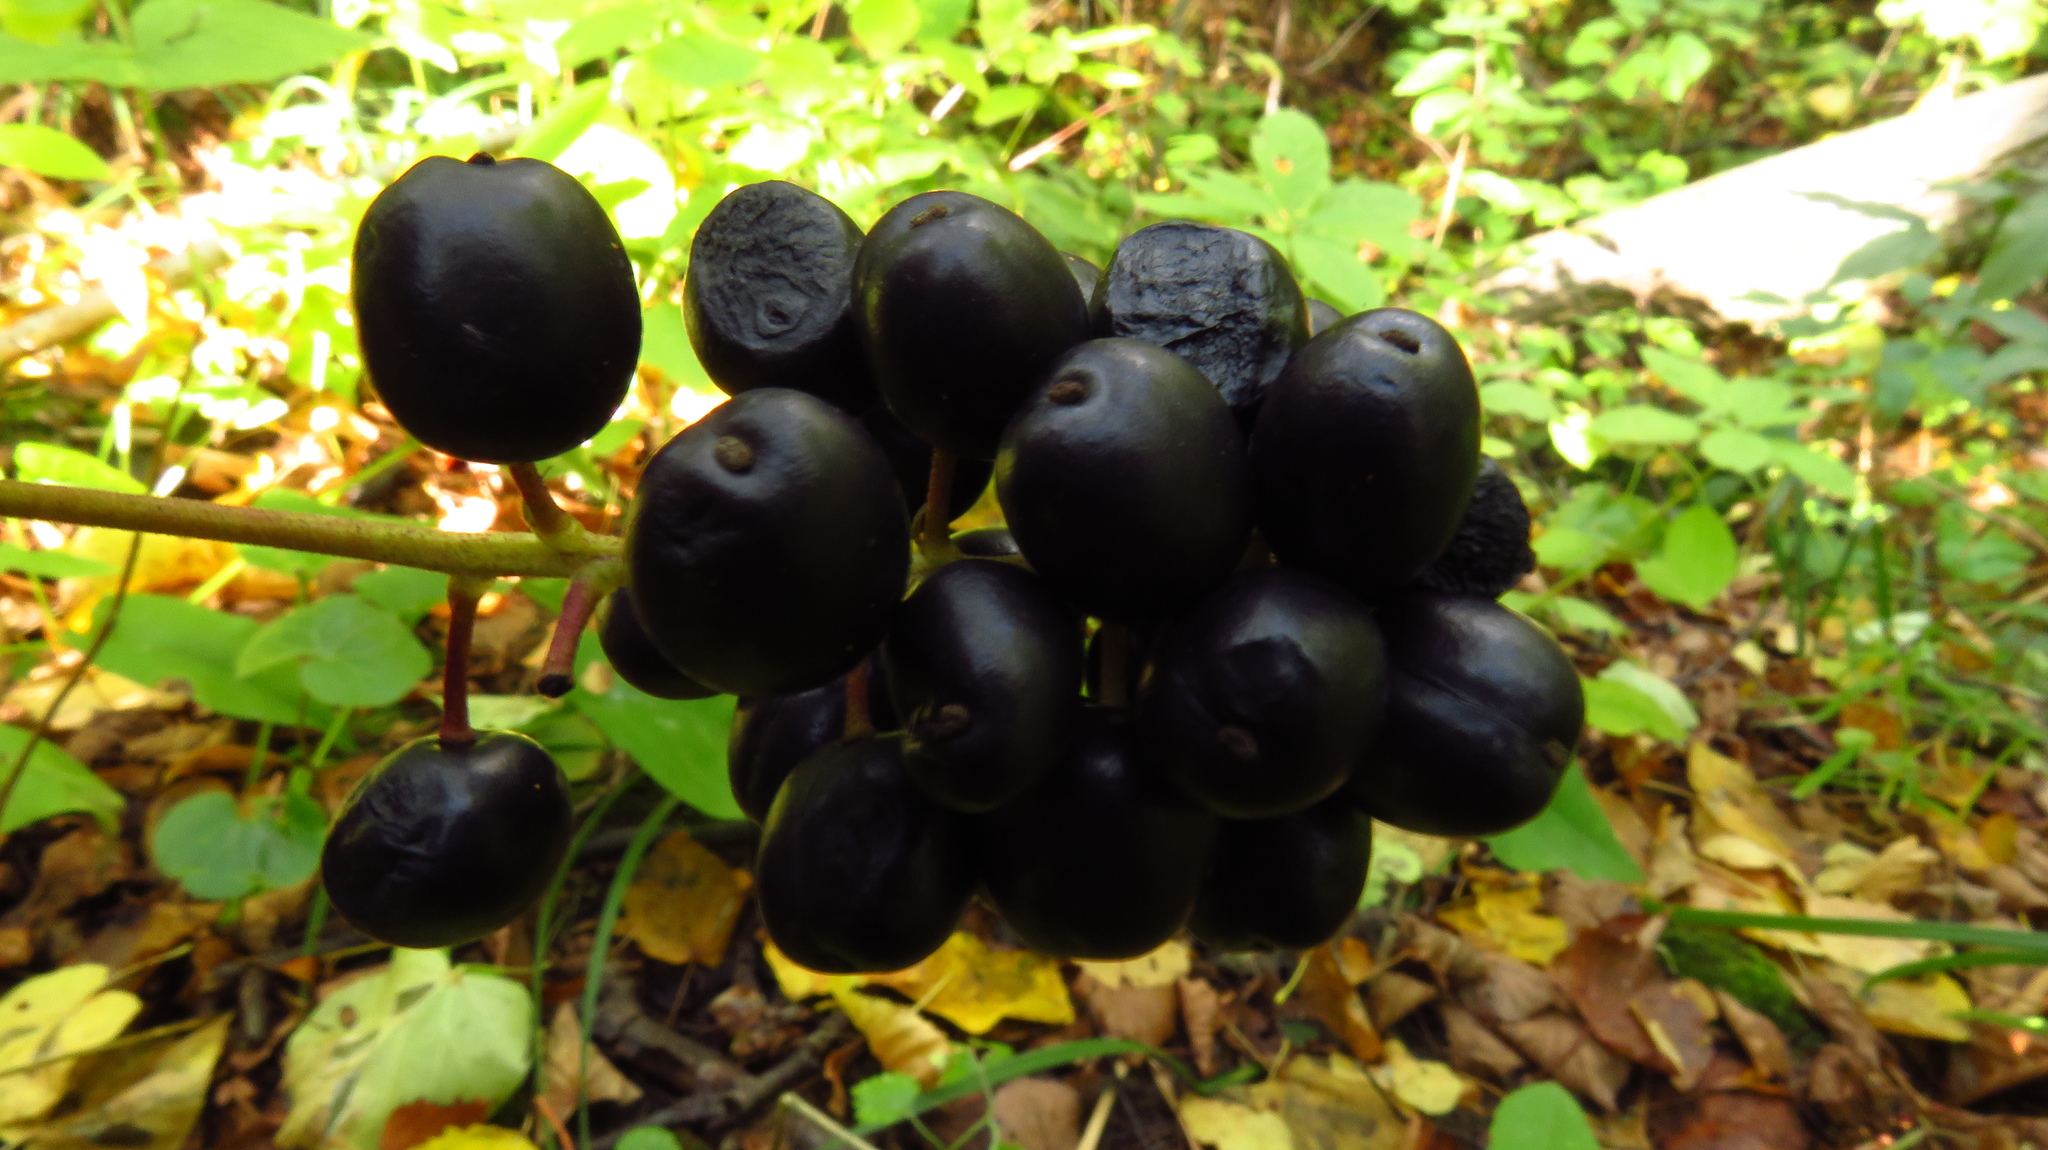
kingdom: Plantae
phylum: Tracheophyta
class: Magnoliopsida
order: Ranunculales
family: Ranunculaceae
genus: Actaea
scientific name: Actaea spicata
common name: Baneberry
